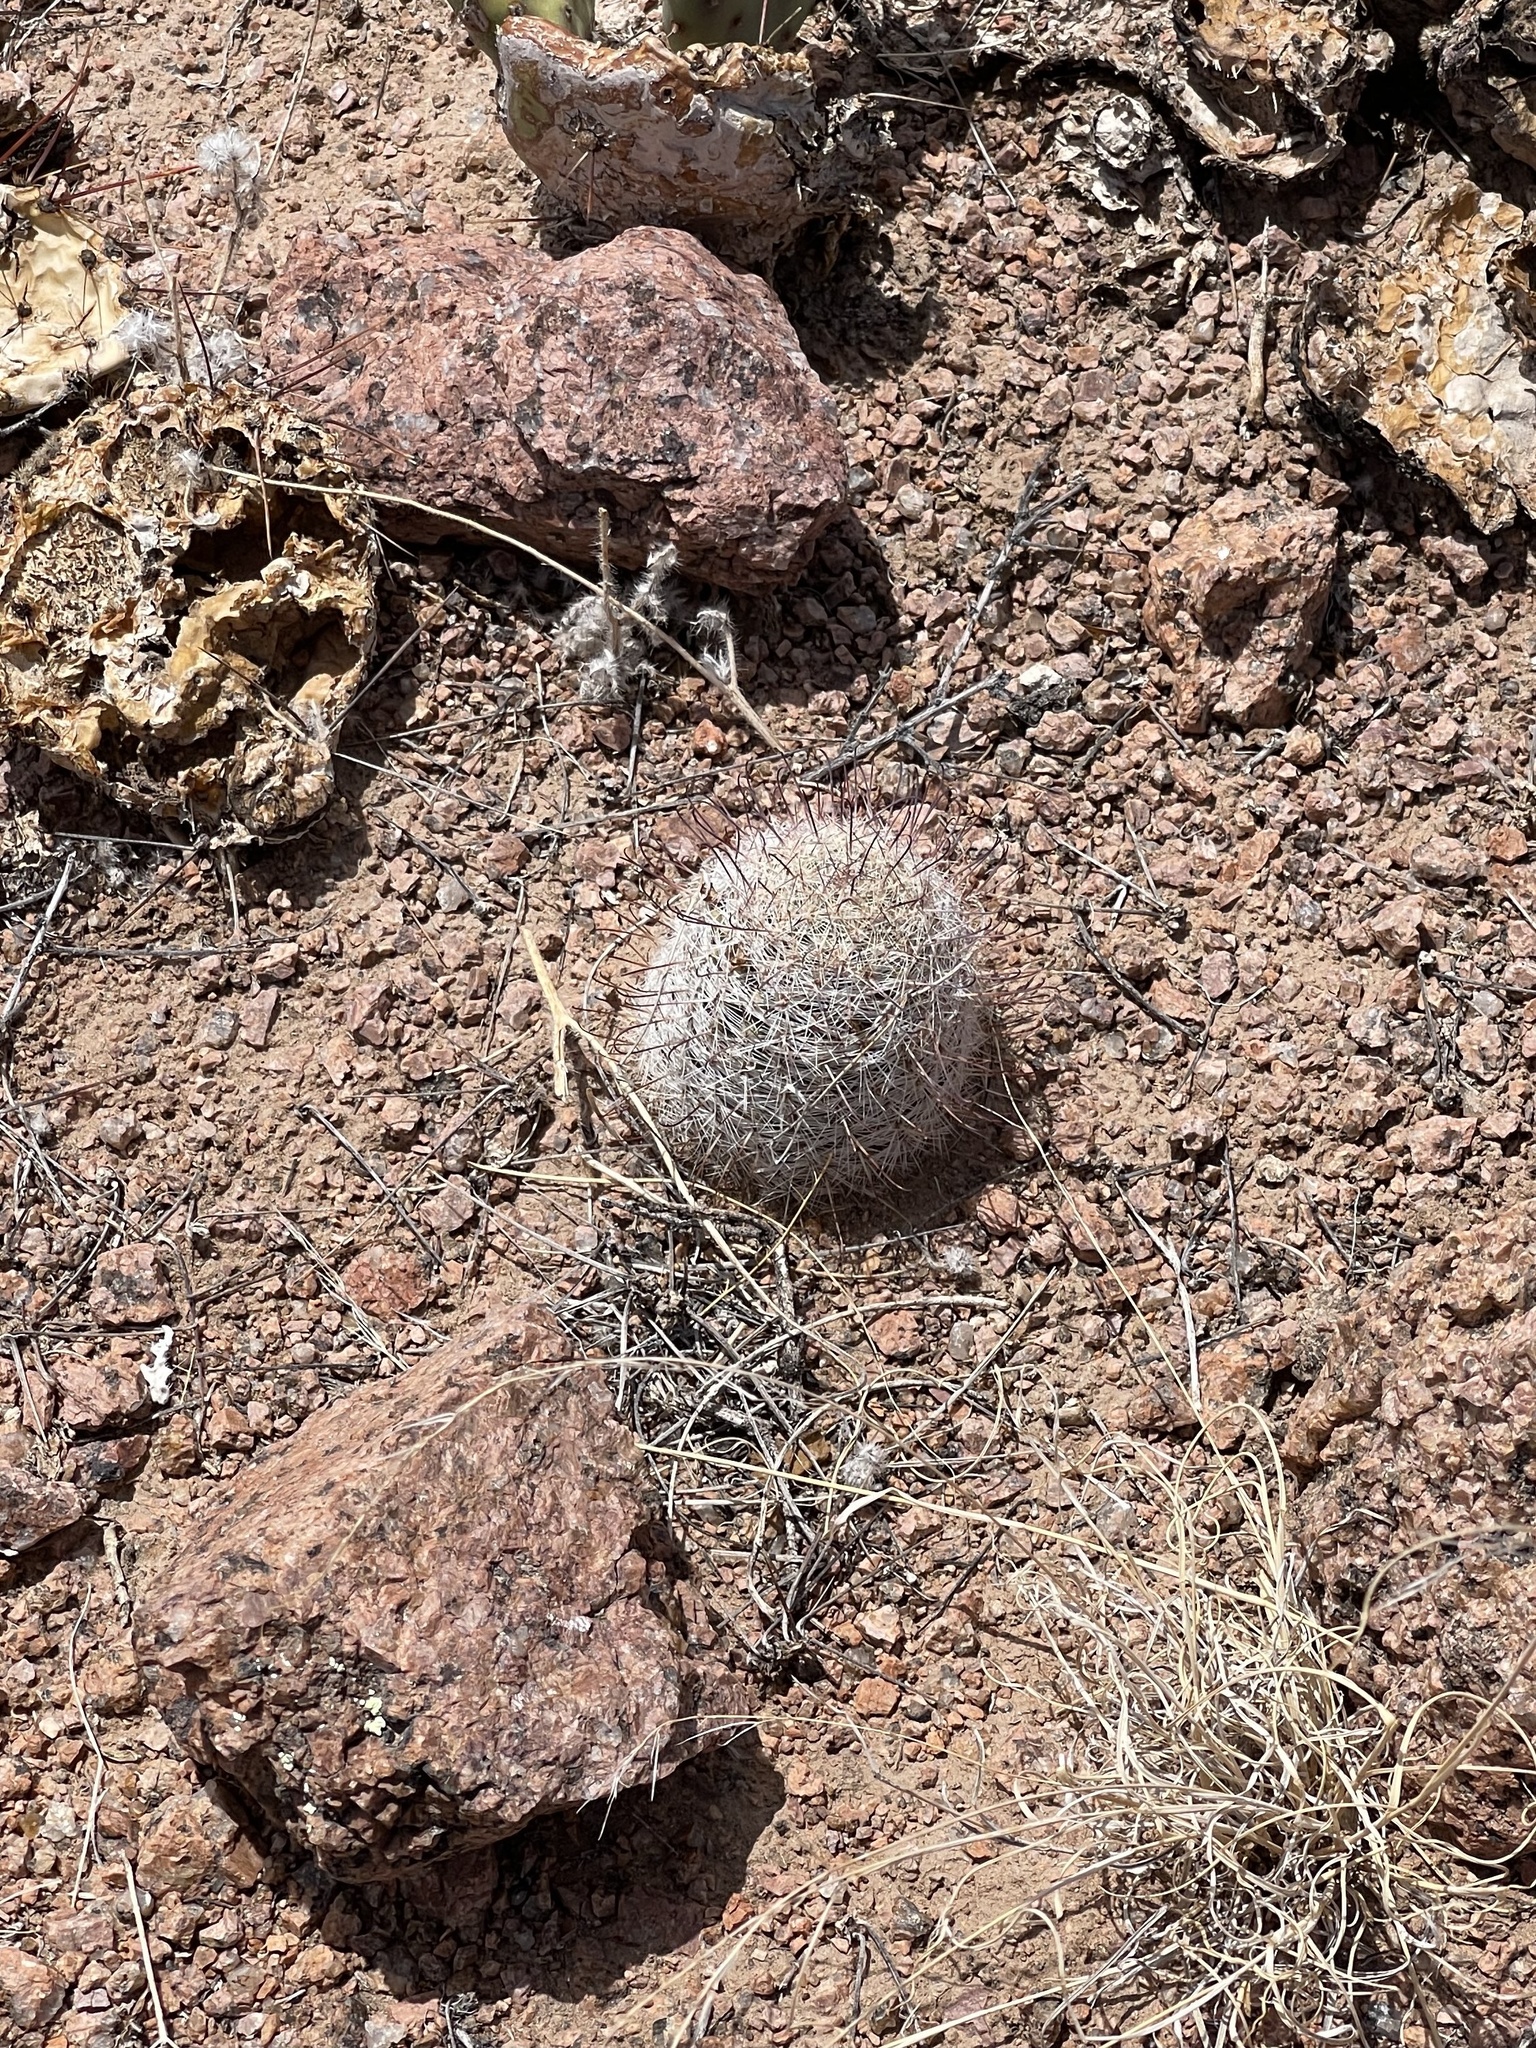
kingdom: Plantae
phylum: Tracheophyta
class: Magnoliopsida
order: Caryophyllales
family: Cactaceae
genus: Cochemiea
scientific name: Cochemiea grahamii
